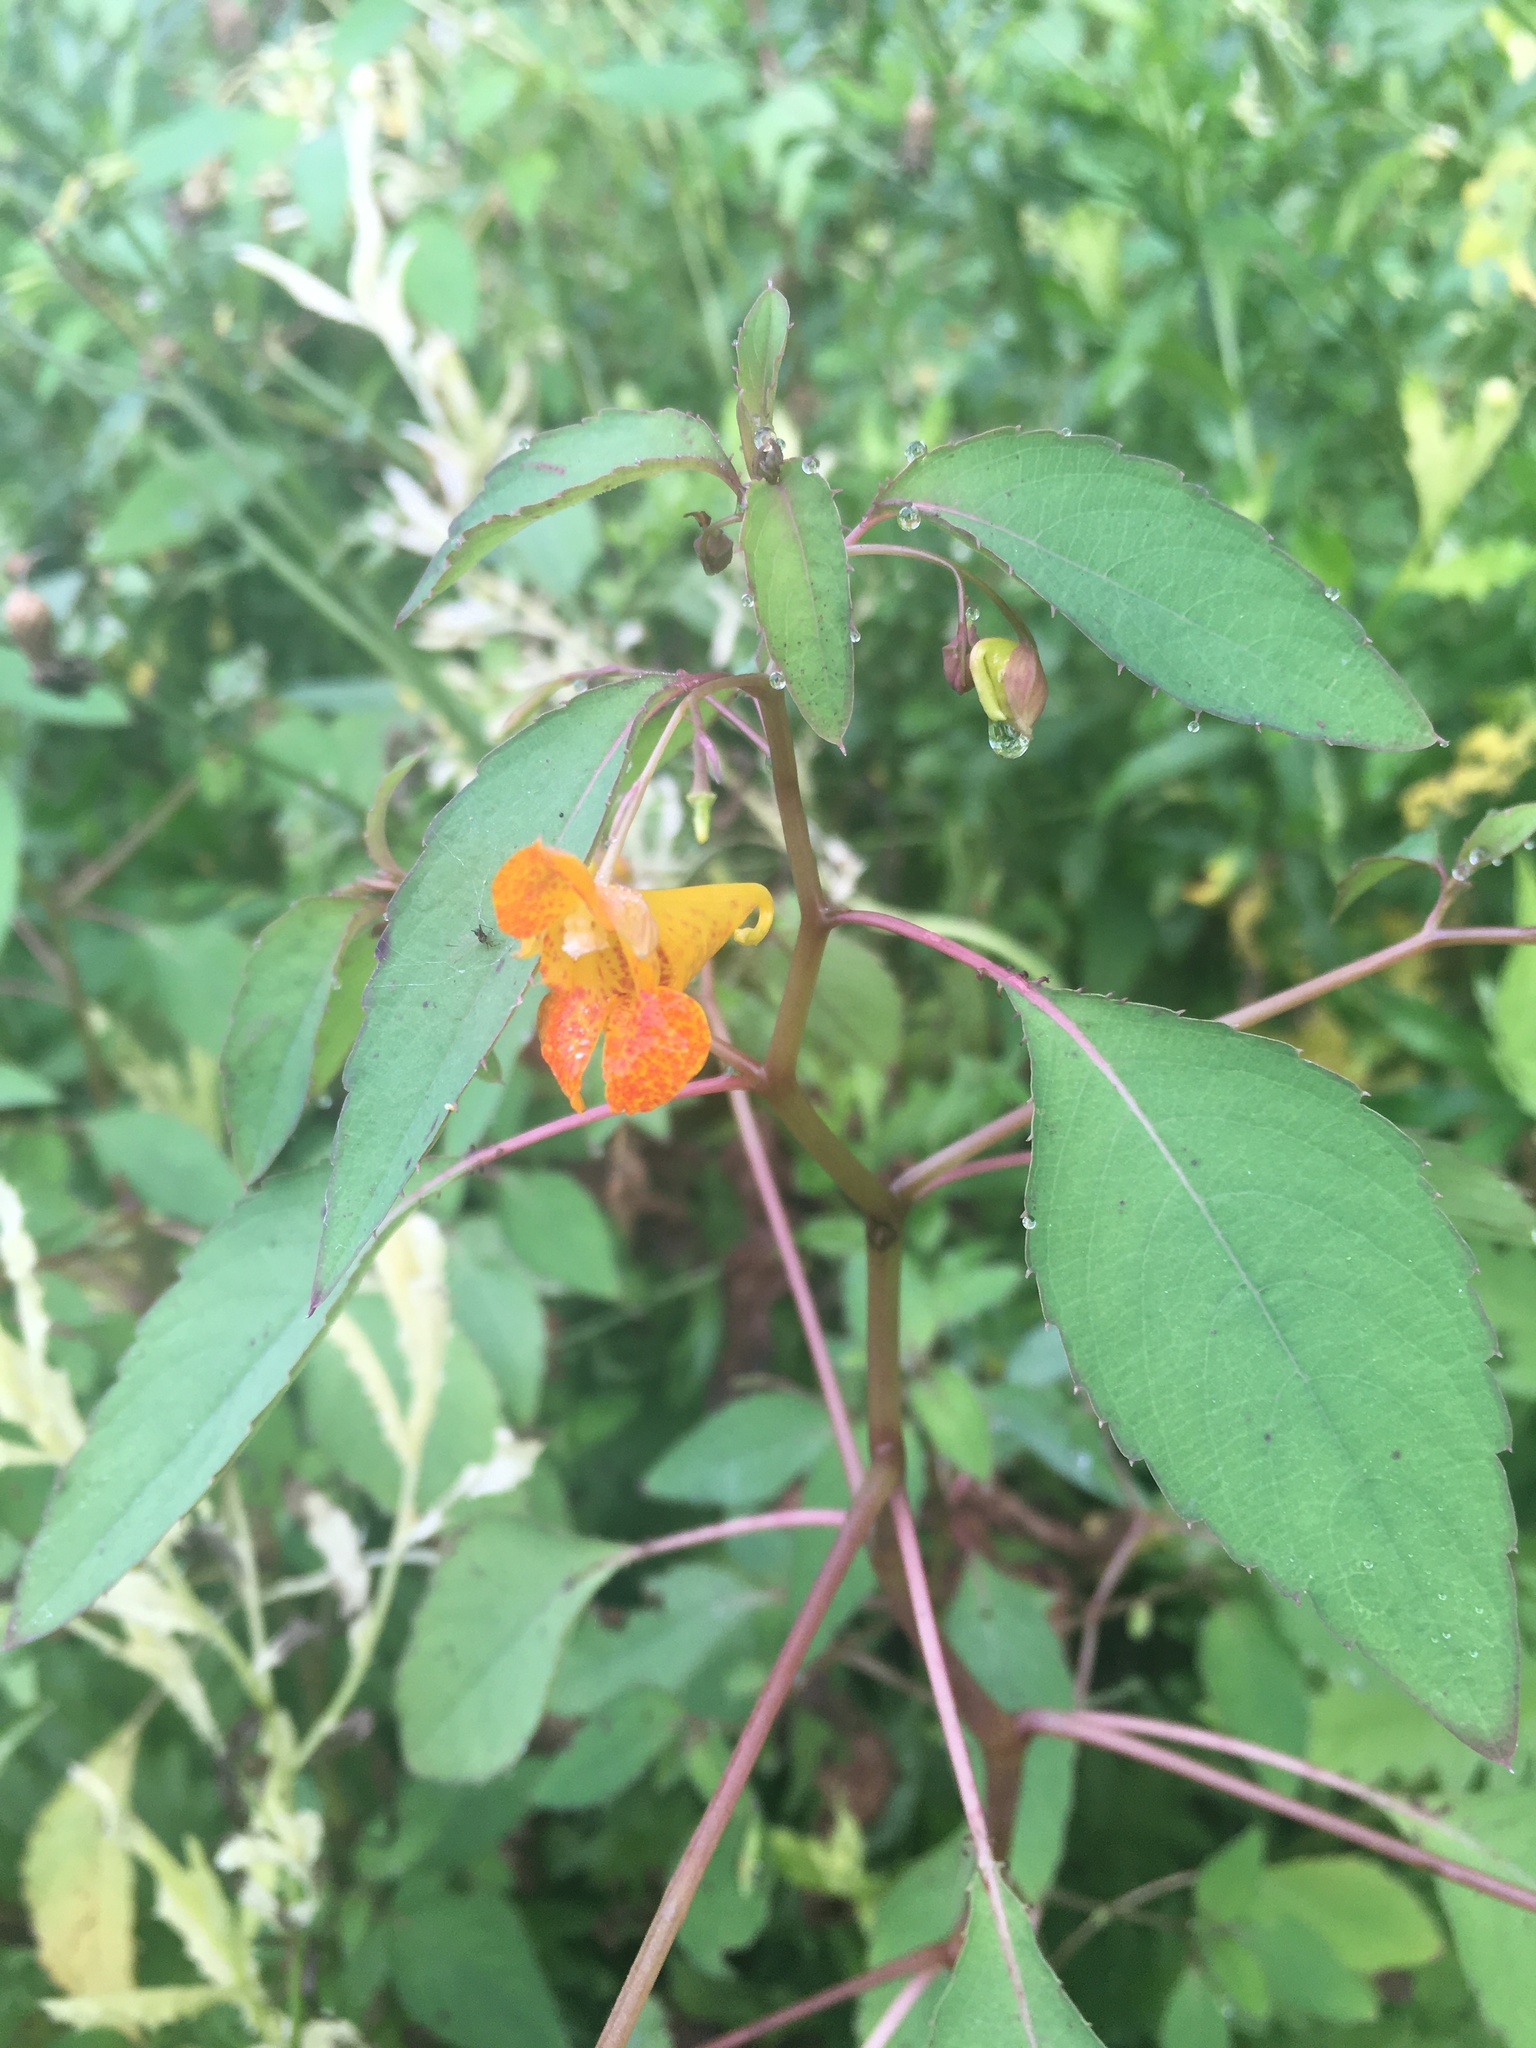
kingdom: Plantae
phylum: Tracheophyta
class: Magnoliopsida
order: Ericales
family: Balsaminaceae
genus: Impatiens
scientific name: Impatiens capensis
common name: Orange balsam
